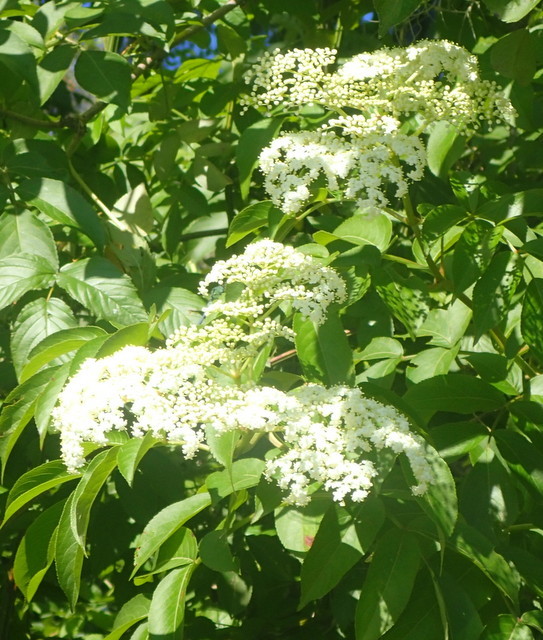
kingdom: Plantae
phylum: Tracheophyta
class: Magnoliopsida
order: Dipsacales
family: Viburnaceae
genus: Sambucus
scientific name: Sambucus canadensis
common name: American elder
